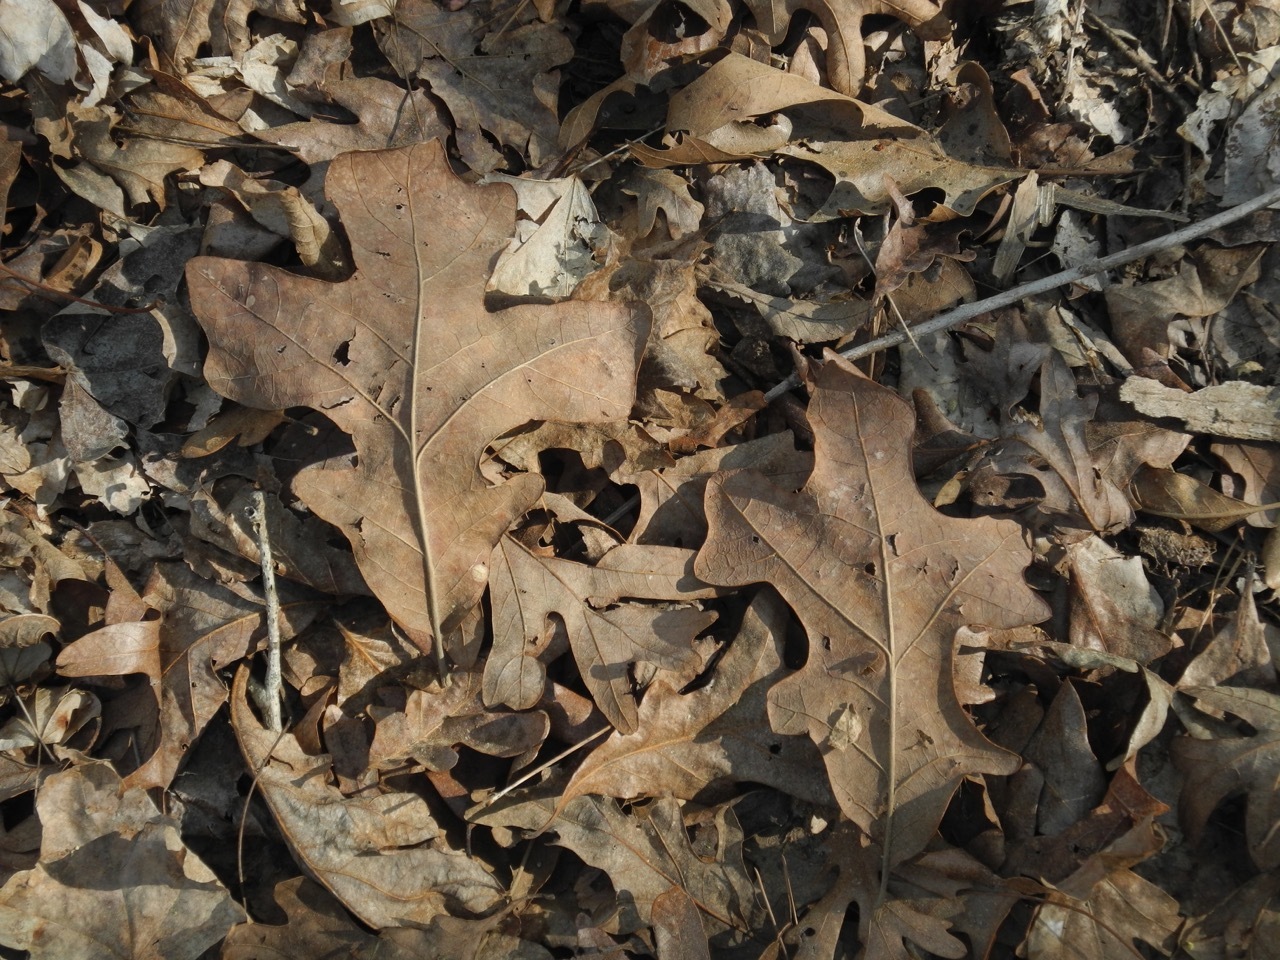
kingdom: Plantae
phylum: Tracheophyta
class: Magnoliopsida
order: Fagales
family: Fagaceae
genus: Quercus
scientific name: Quercus stellata
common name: Post oak
